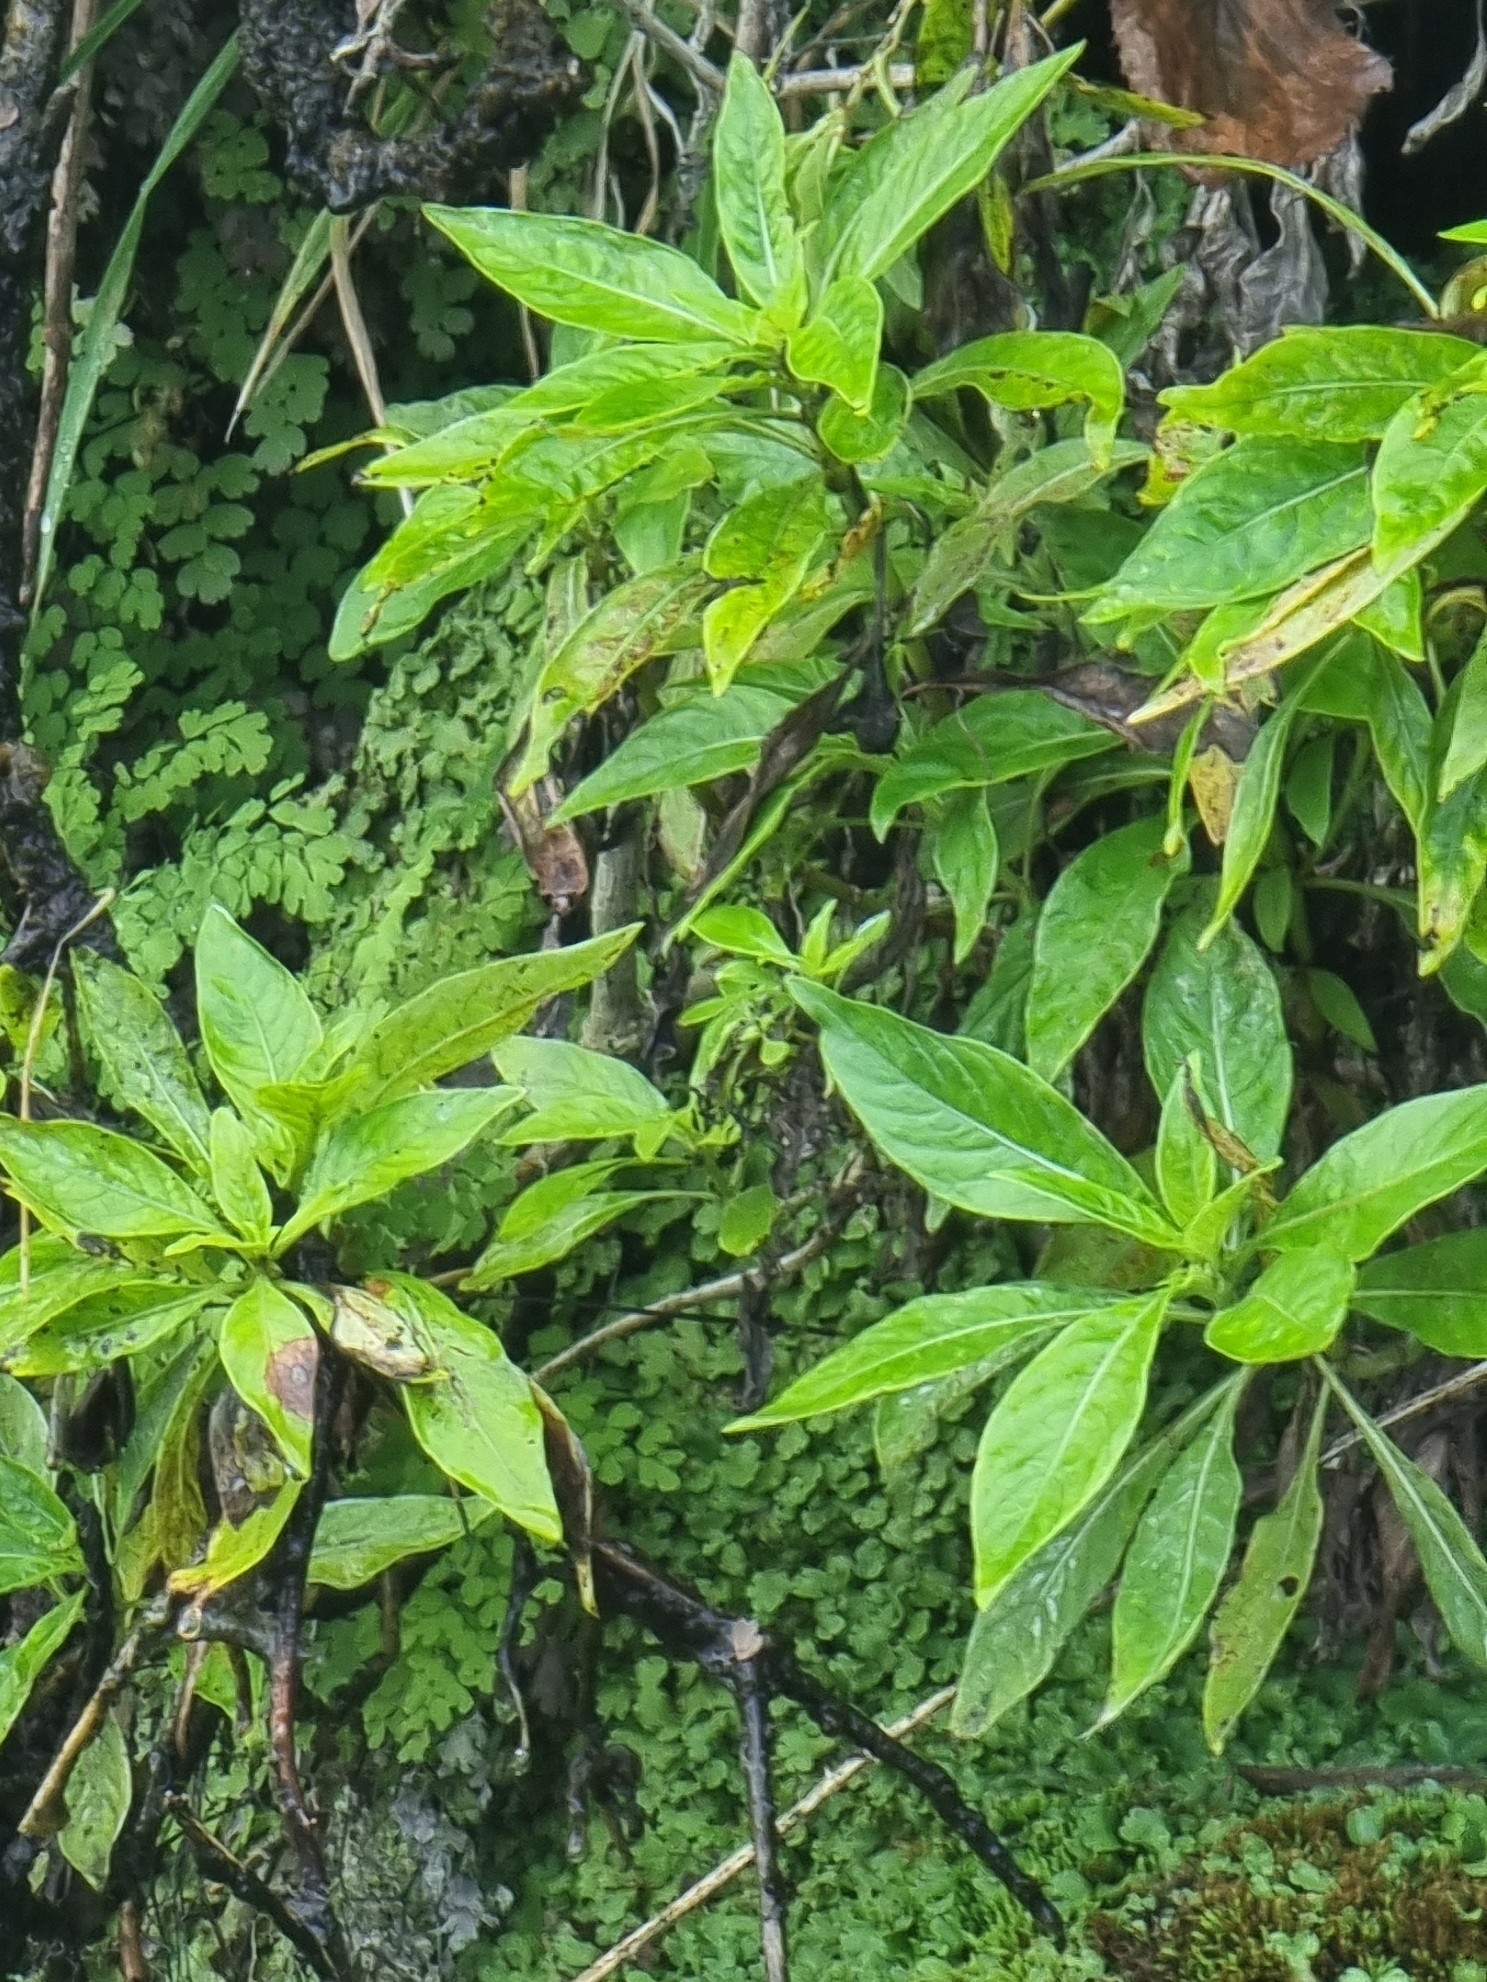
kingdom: Plantae
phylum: Tracheophyta
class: Magnoliopsida
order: Gentianales
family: Rubiaceae
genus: Phyllis
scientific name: Phyllis nobla
